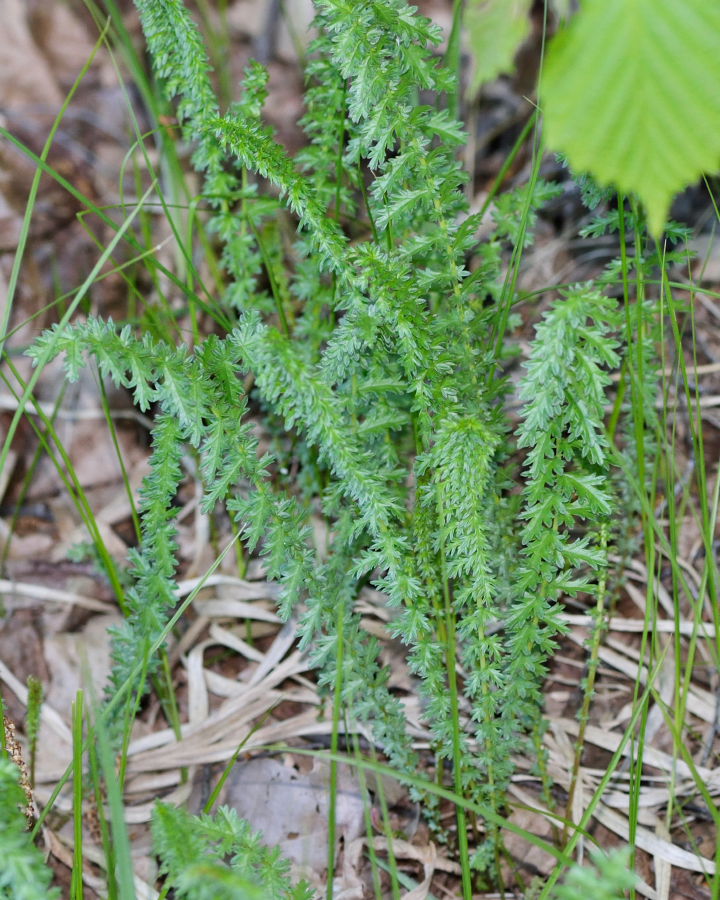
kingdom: Plantae
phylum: Tracheophyta
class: Magnoliopsida
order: Rosales
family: Rosaceae
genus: Filipendula
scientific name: Filipendula vulgaris
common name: Dropwort
